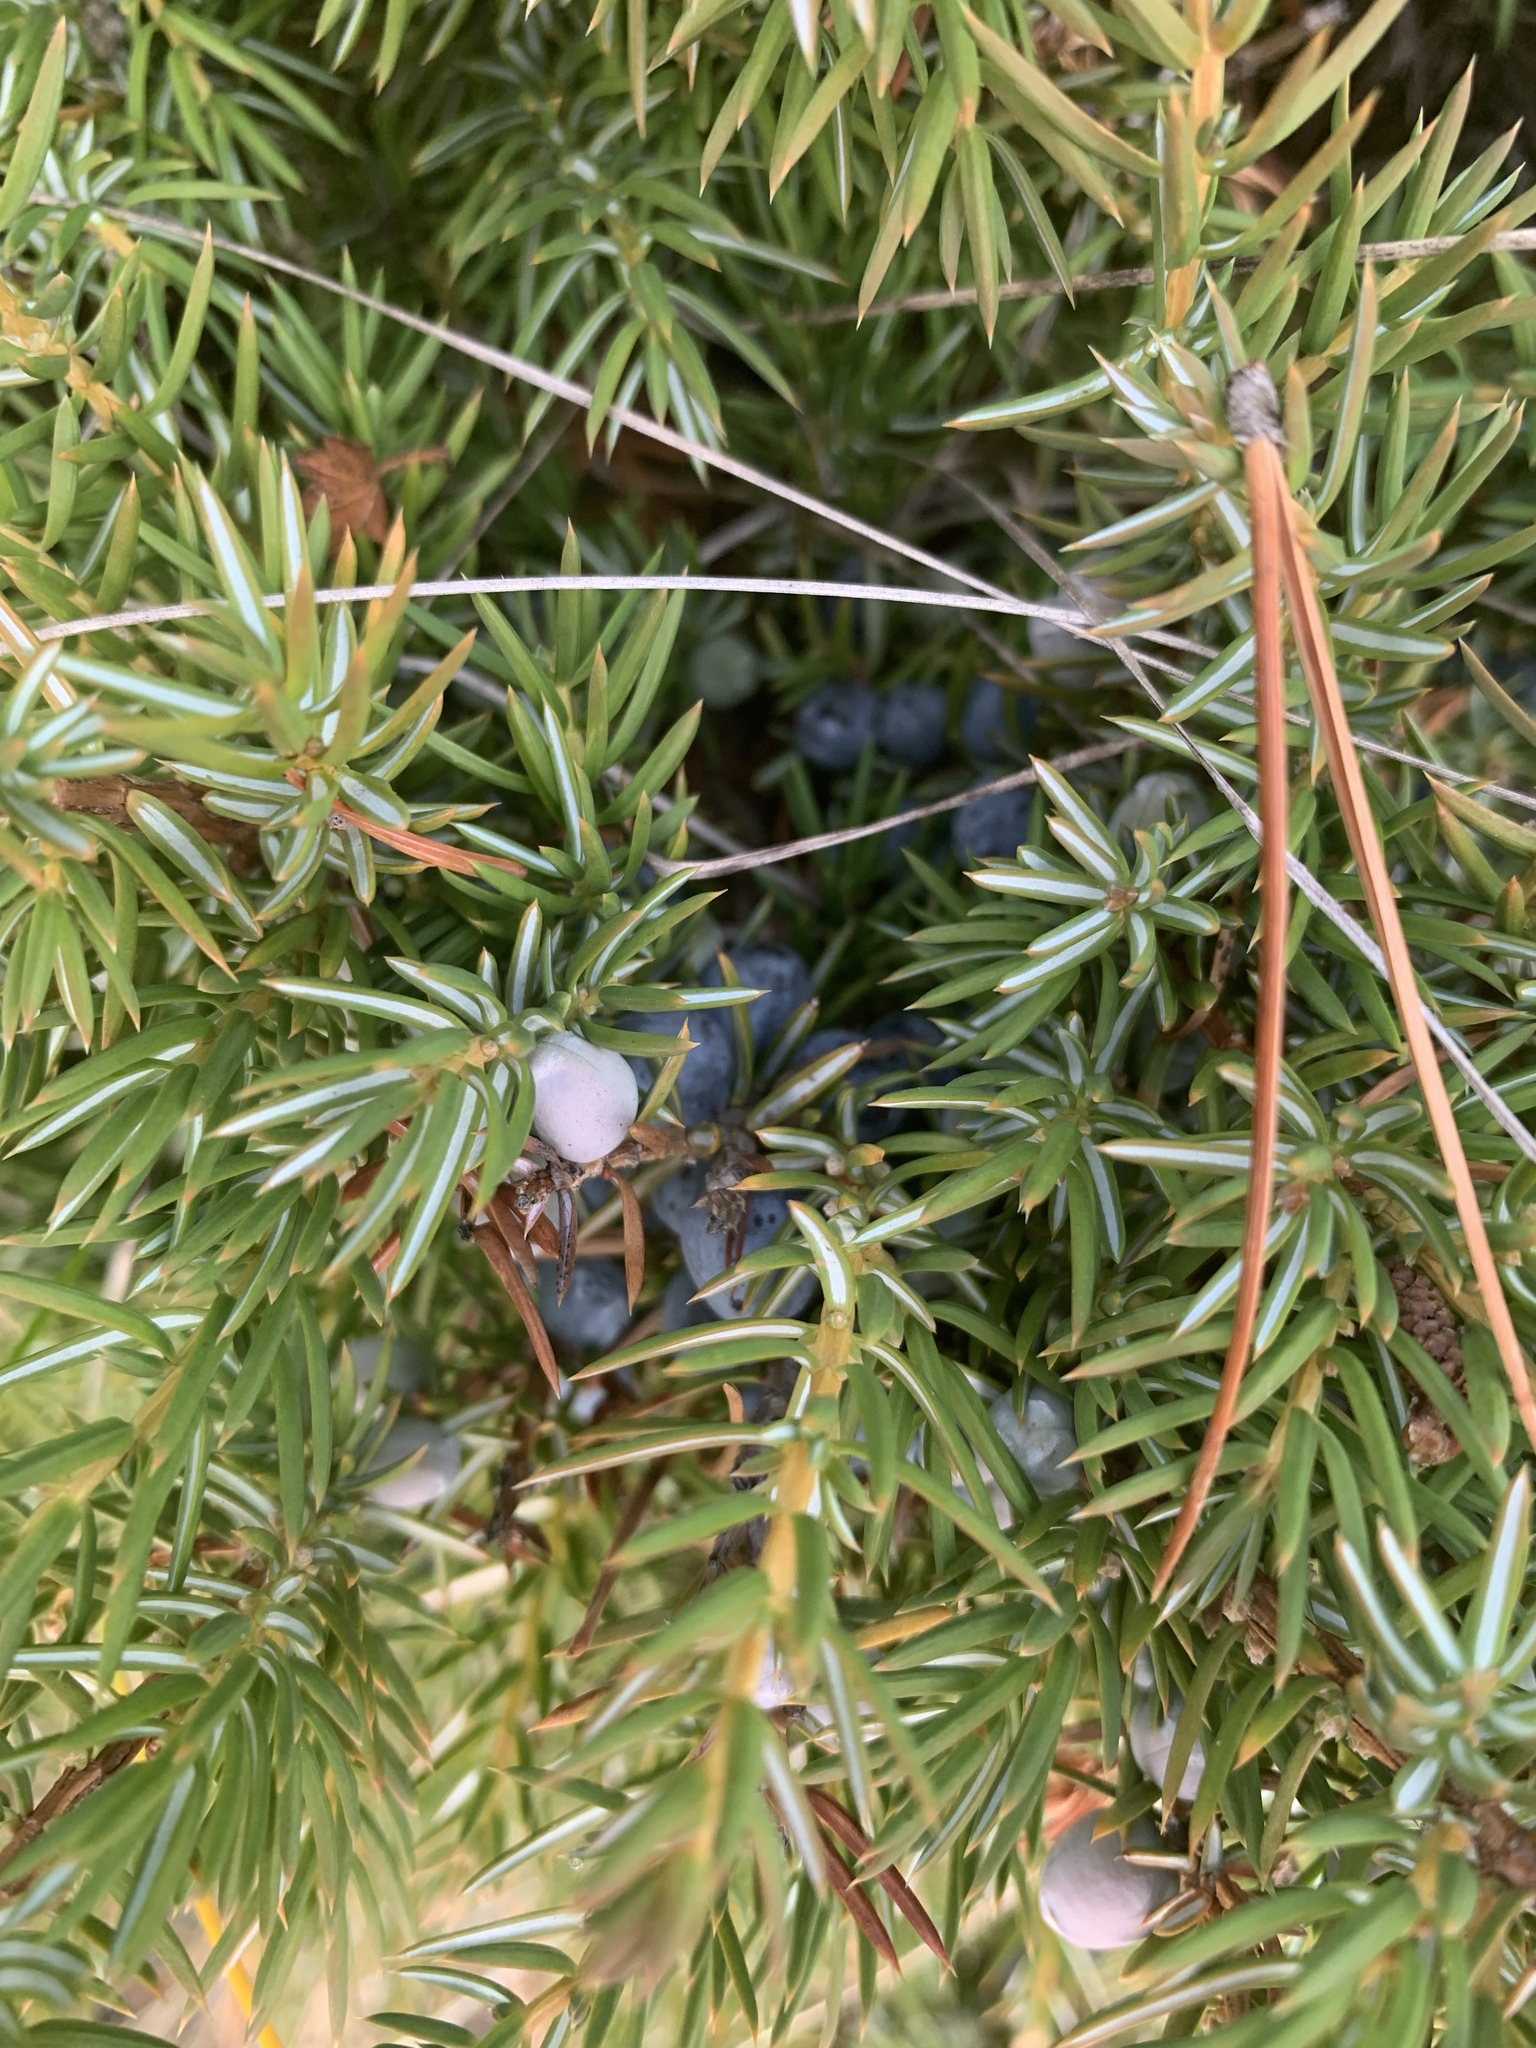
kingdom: Plantae
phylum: Tracheophyta
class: Pinopsida
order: Pinales
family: Cupressaceae
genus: Juniperus
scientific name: Juniperus communis
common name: Common juniper
